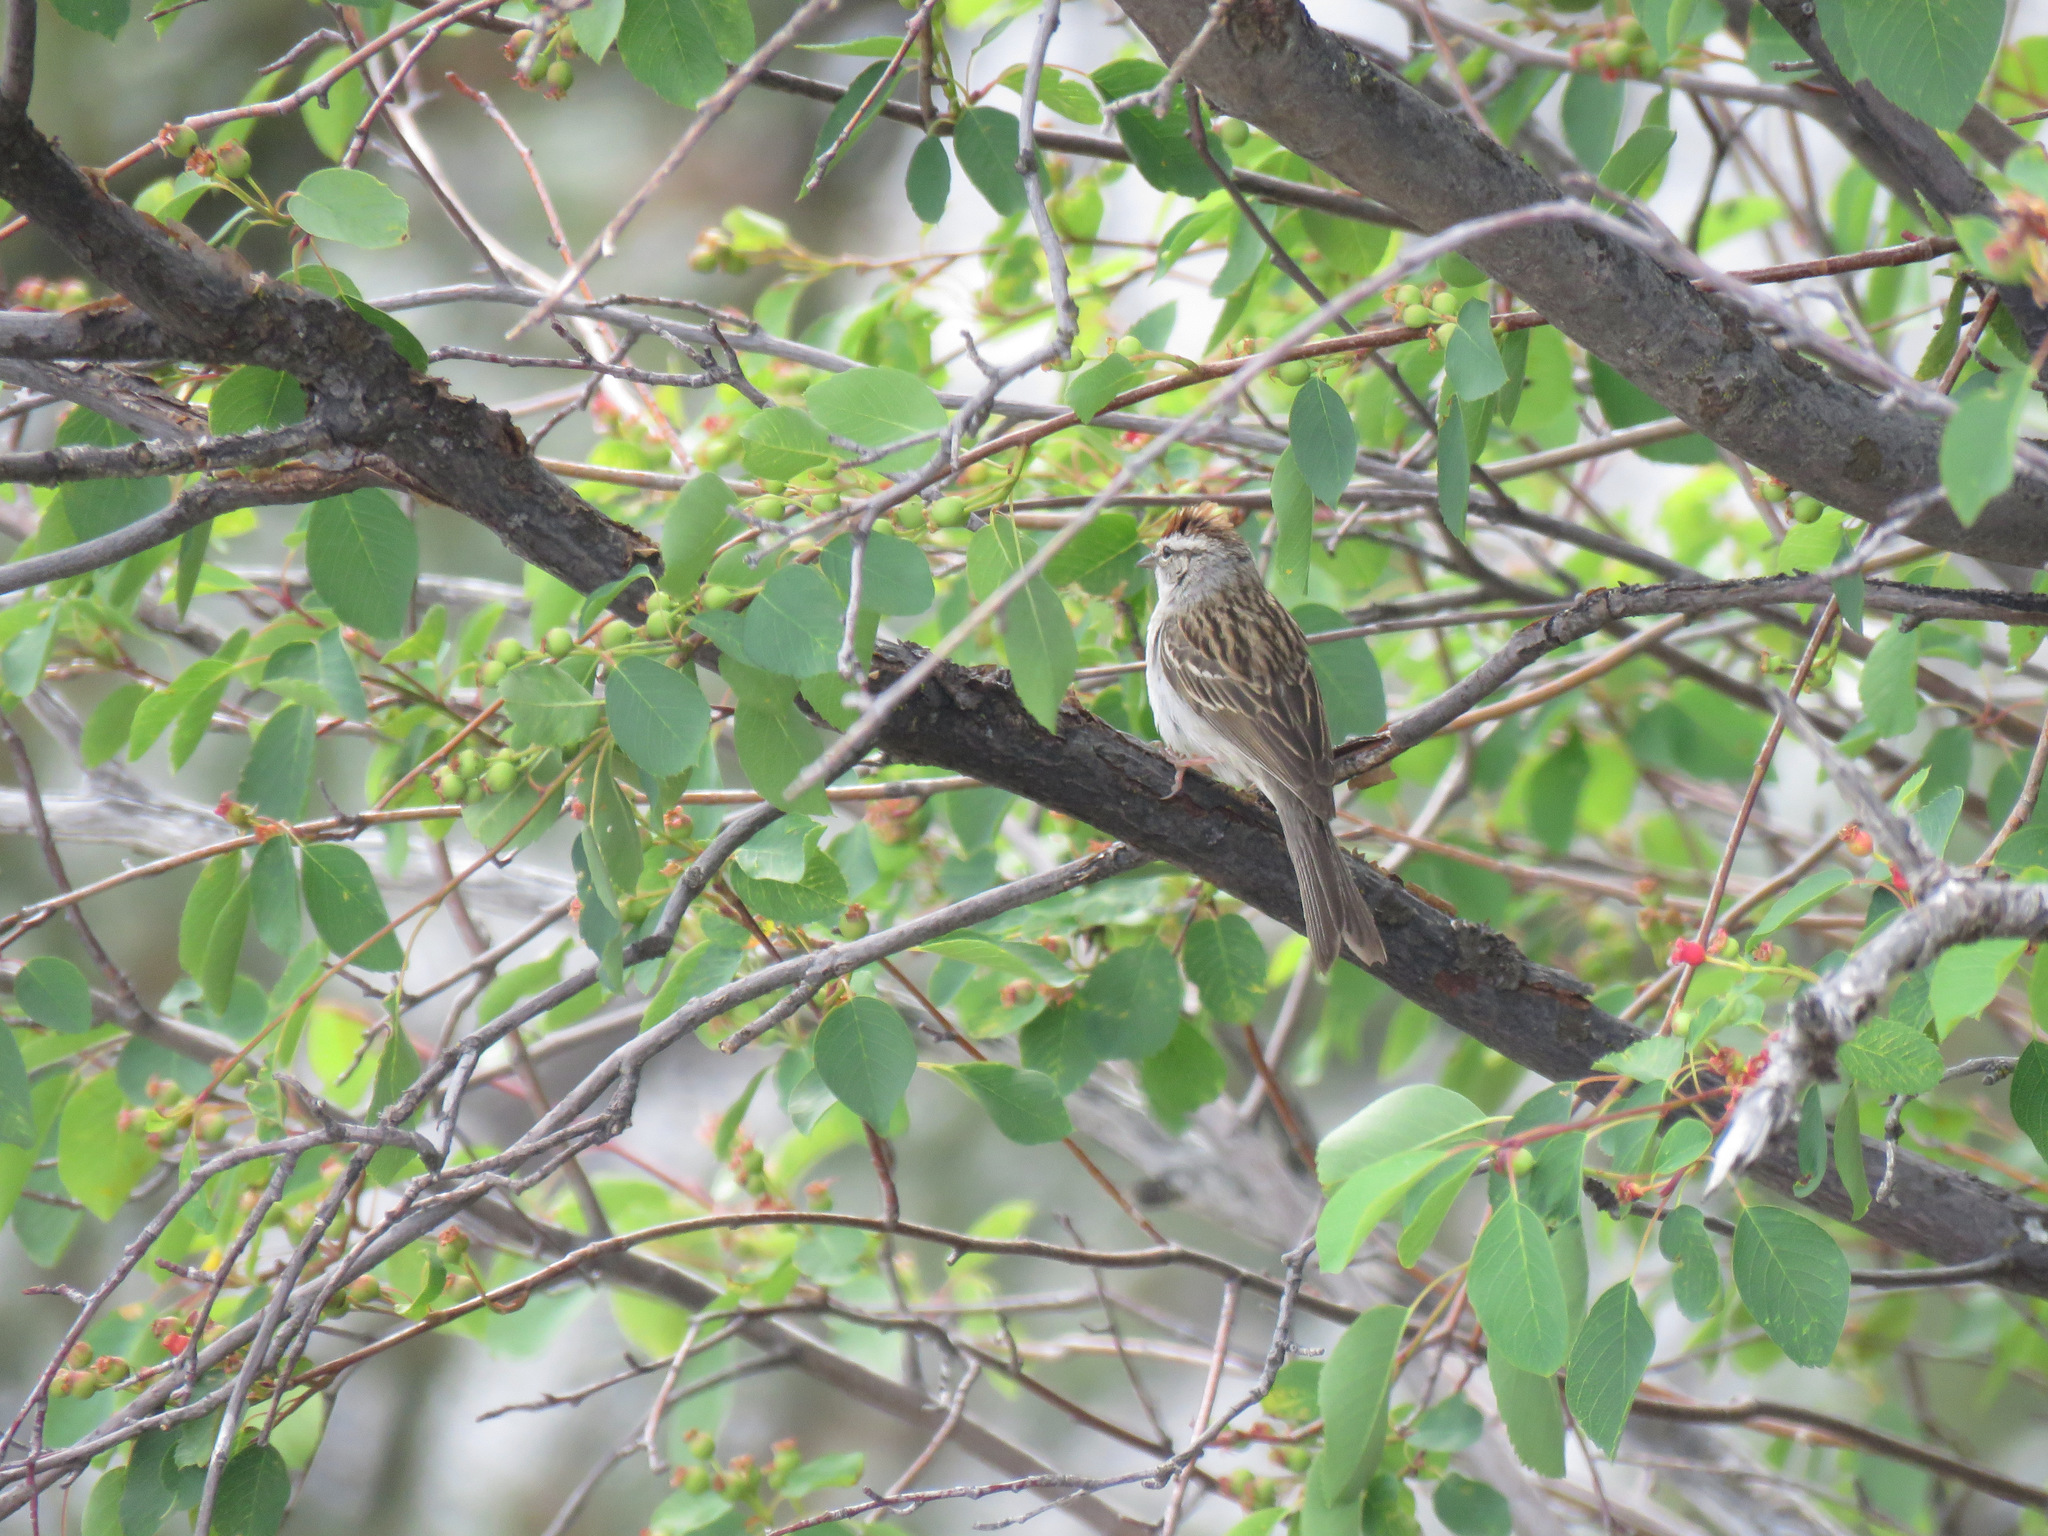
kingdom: Animalia
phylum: Chordata
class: Aves
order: Passeriformes
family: Passerellidae
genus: Spizella
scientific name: Spizella passerina
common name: Chipping sparrow
